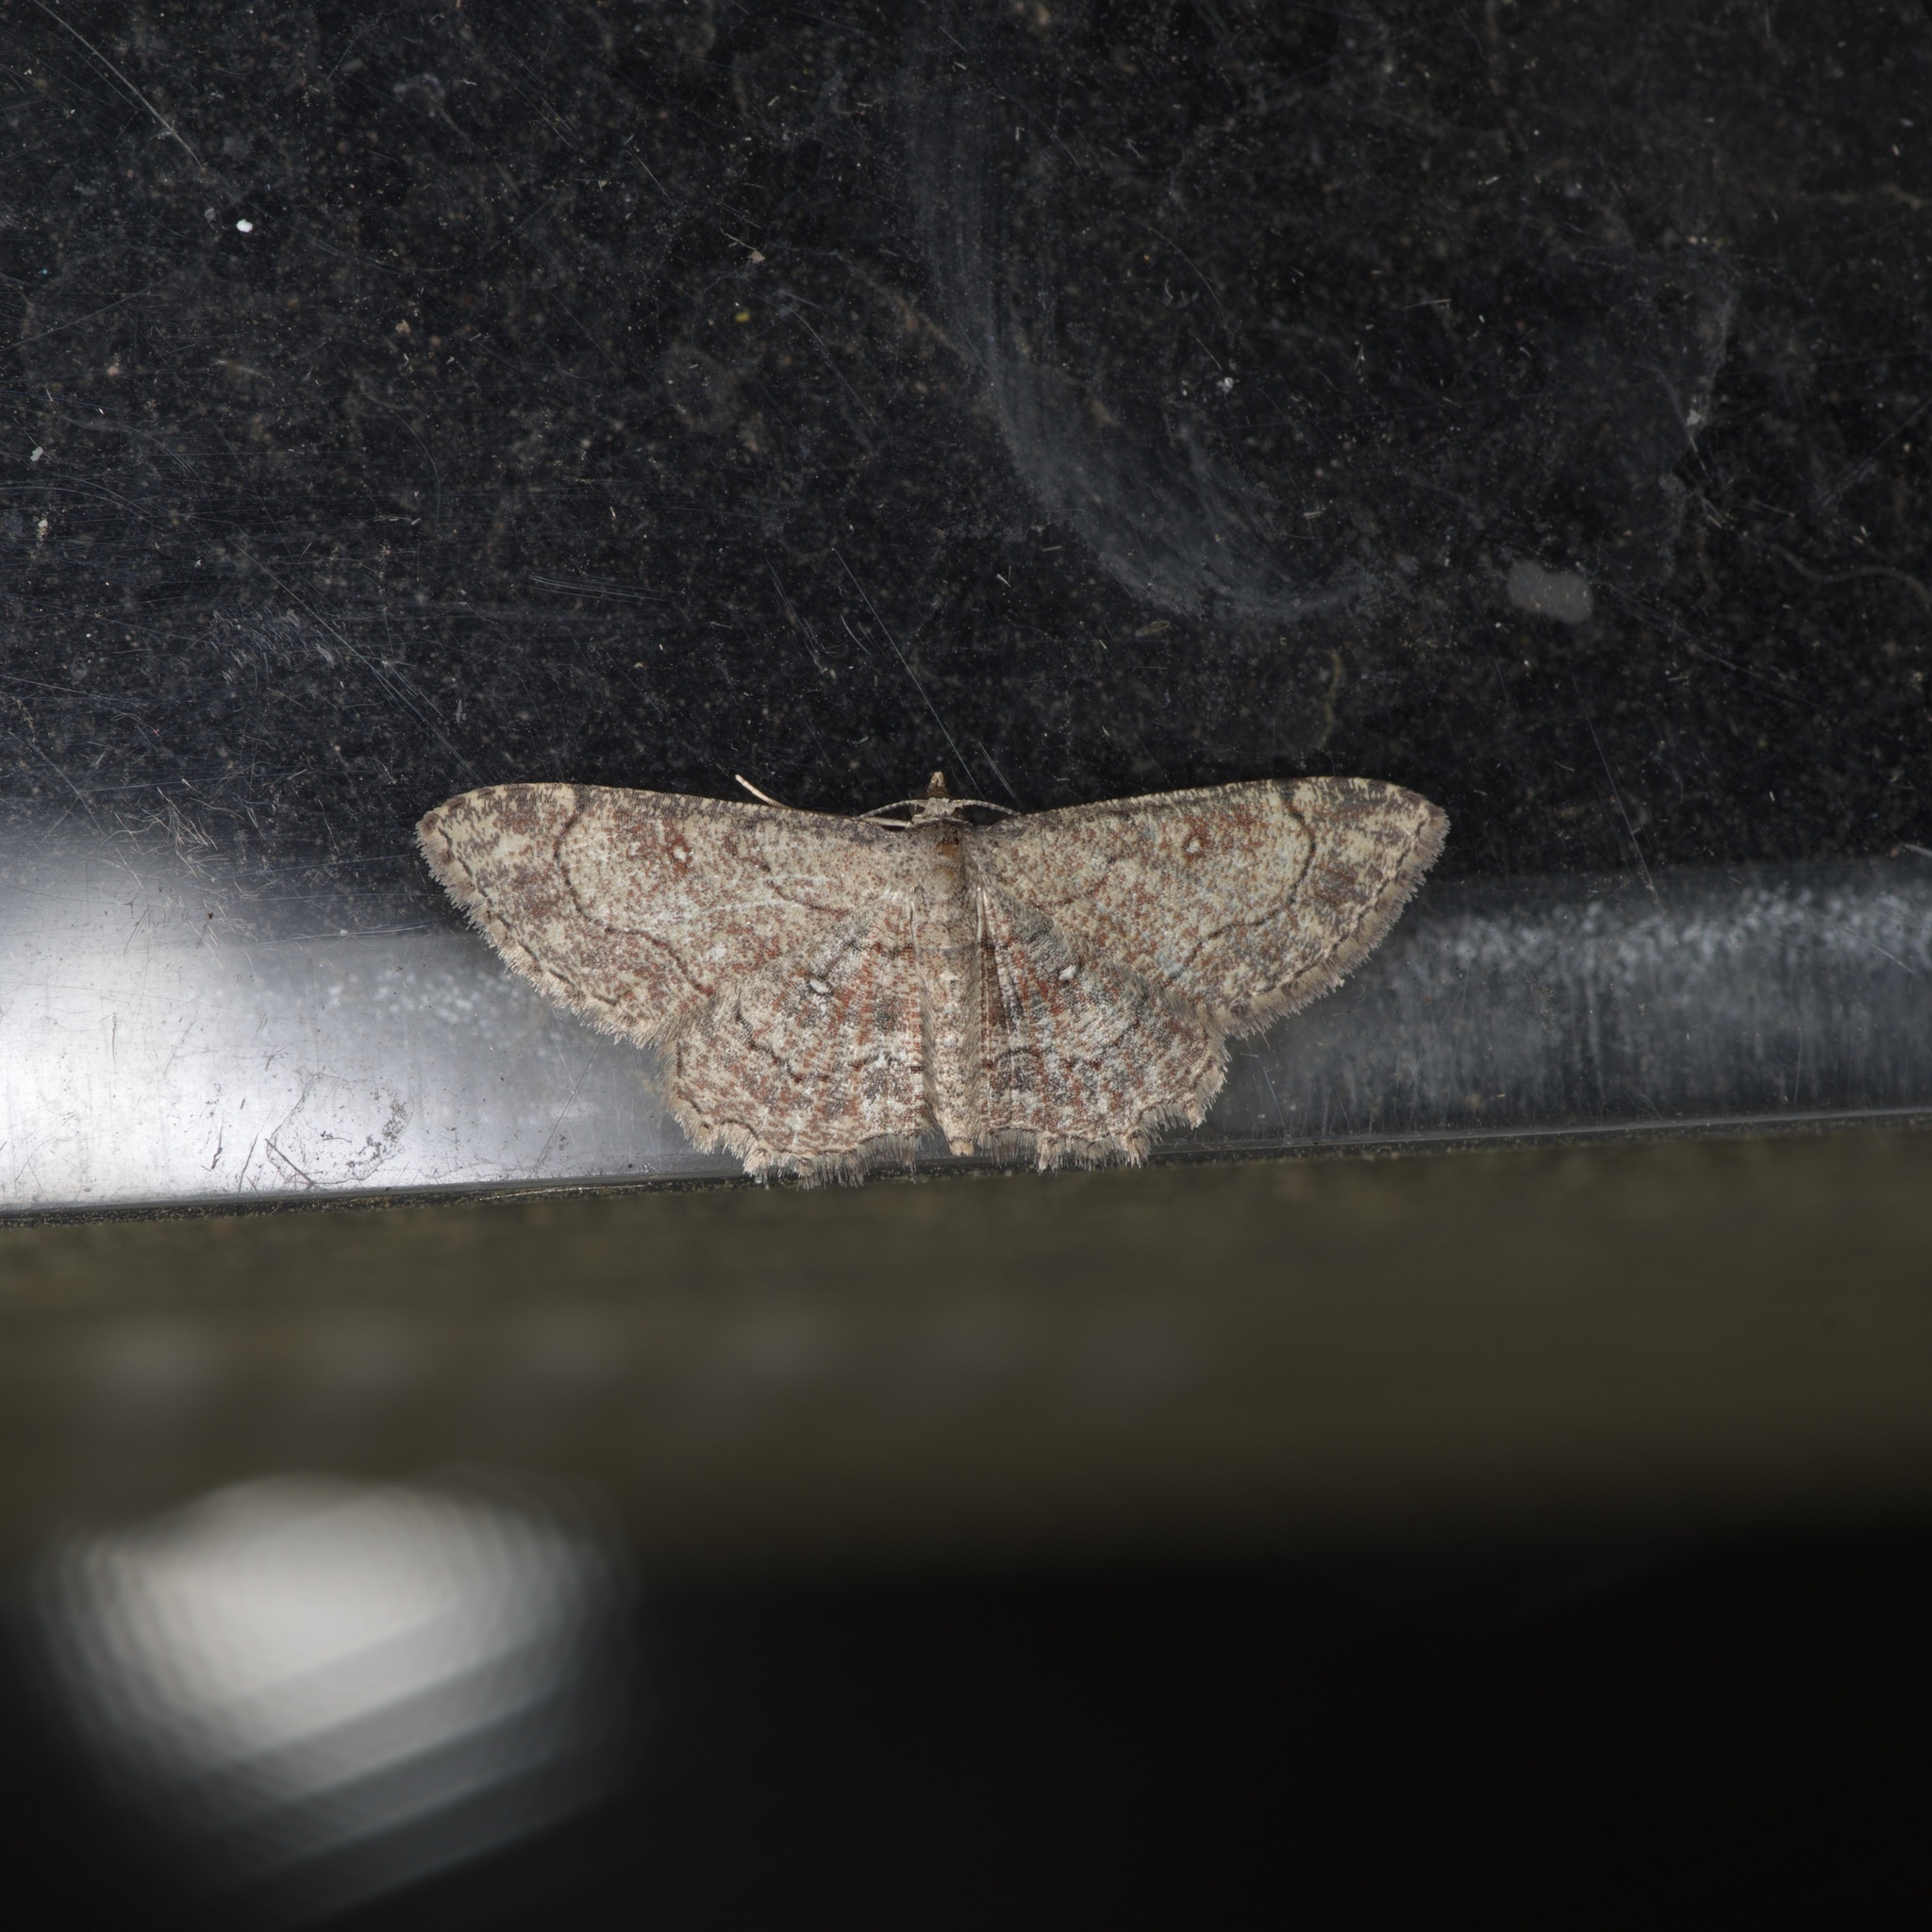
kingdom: Animalia
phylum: Arthropoda
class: Insecta
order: Lepidoptera
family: Geometridae
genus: Cyclophora
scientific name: Cyclophora nanaria
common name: Cankerworm
